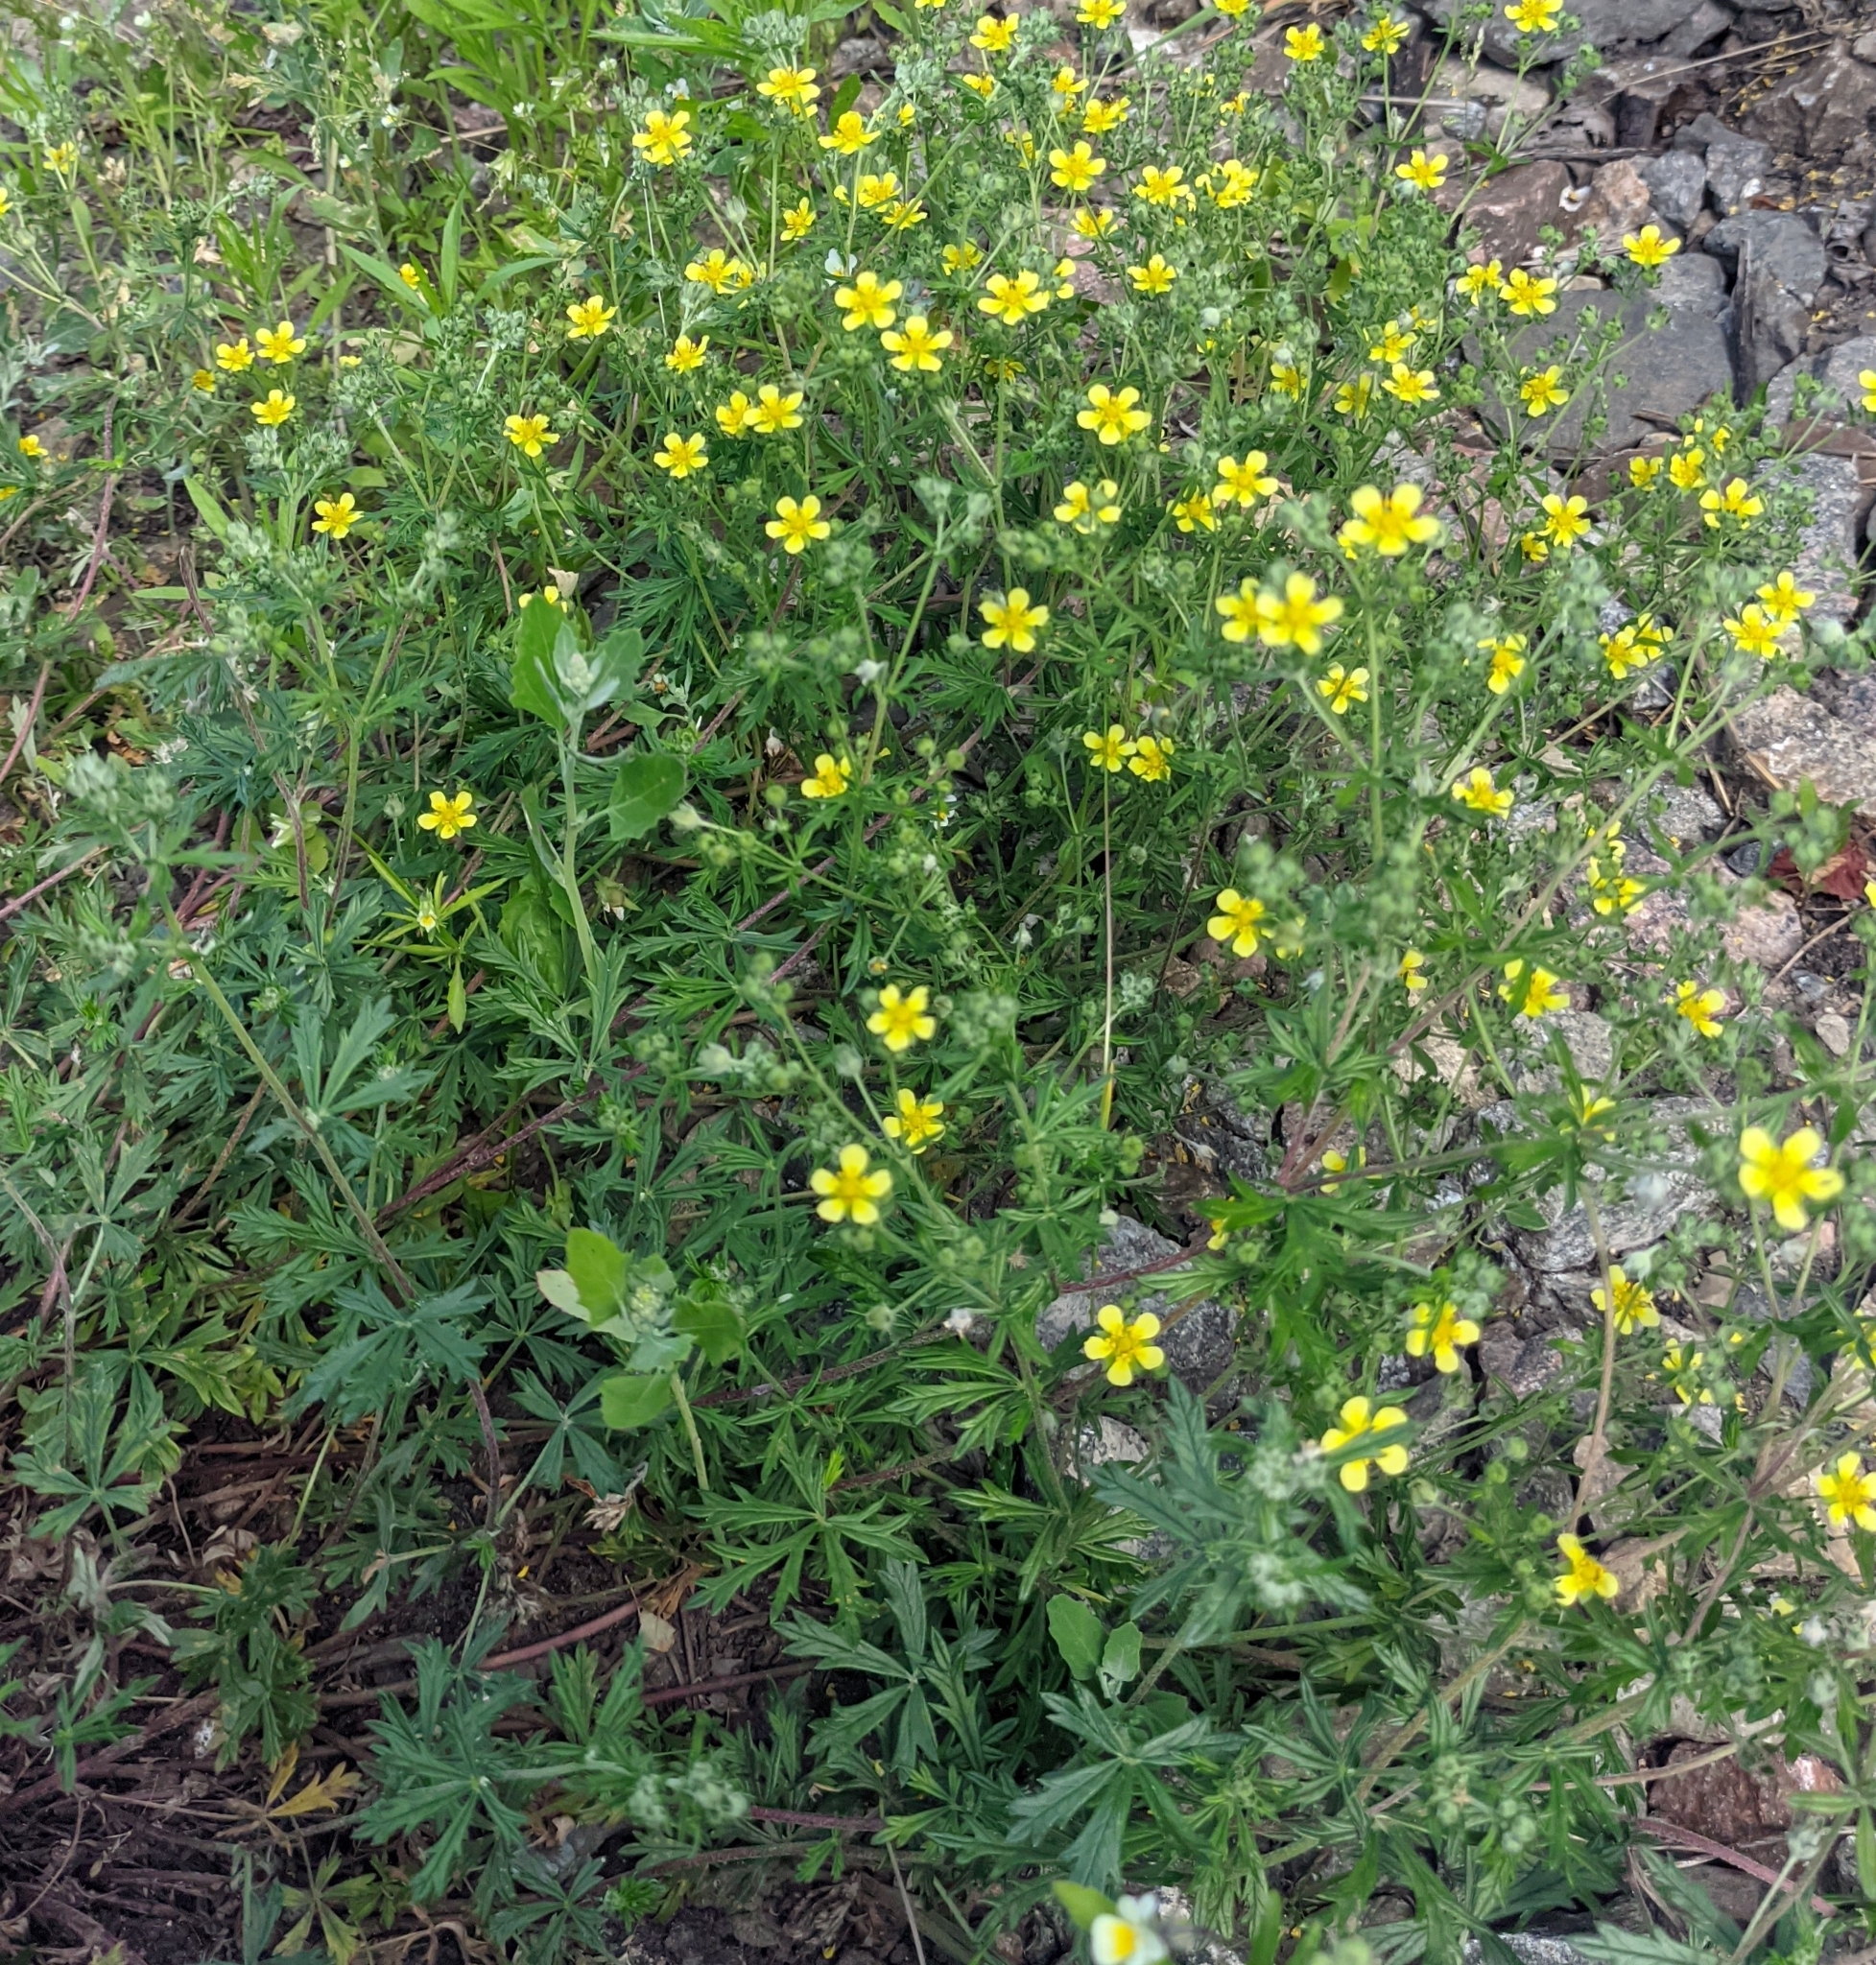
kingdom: Plantae
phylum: Tracheophyta
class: Magnoliopsida
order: Rosales
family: Rosaceae
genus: Potentilla
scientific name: Potentilla argentea
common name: Hoary cinquefoil
